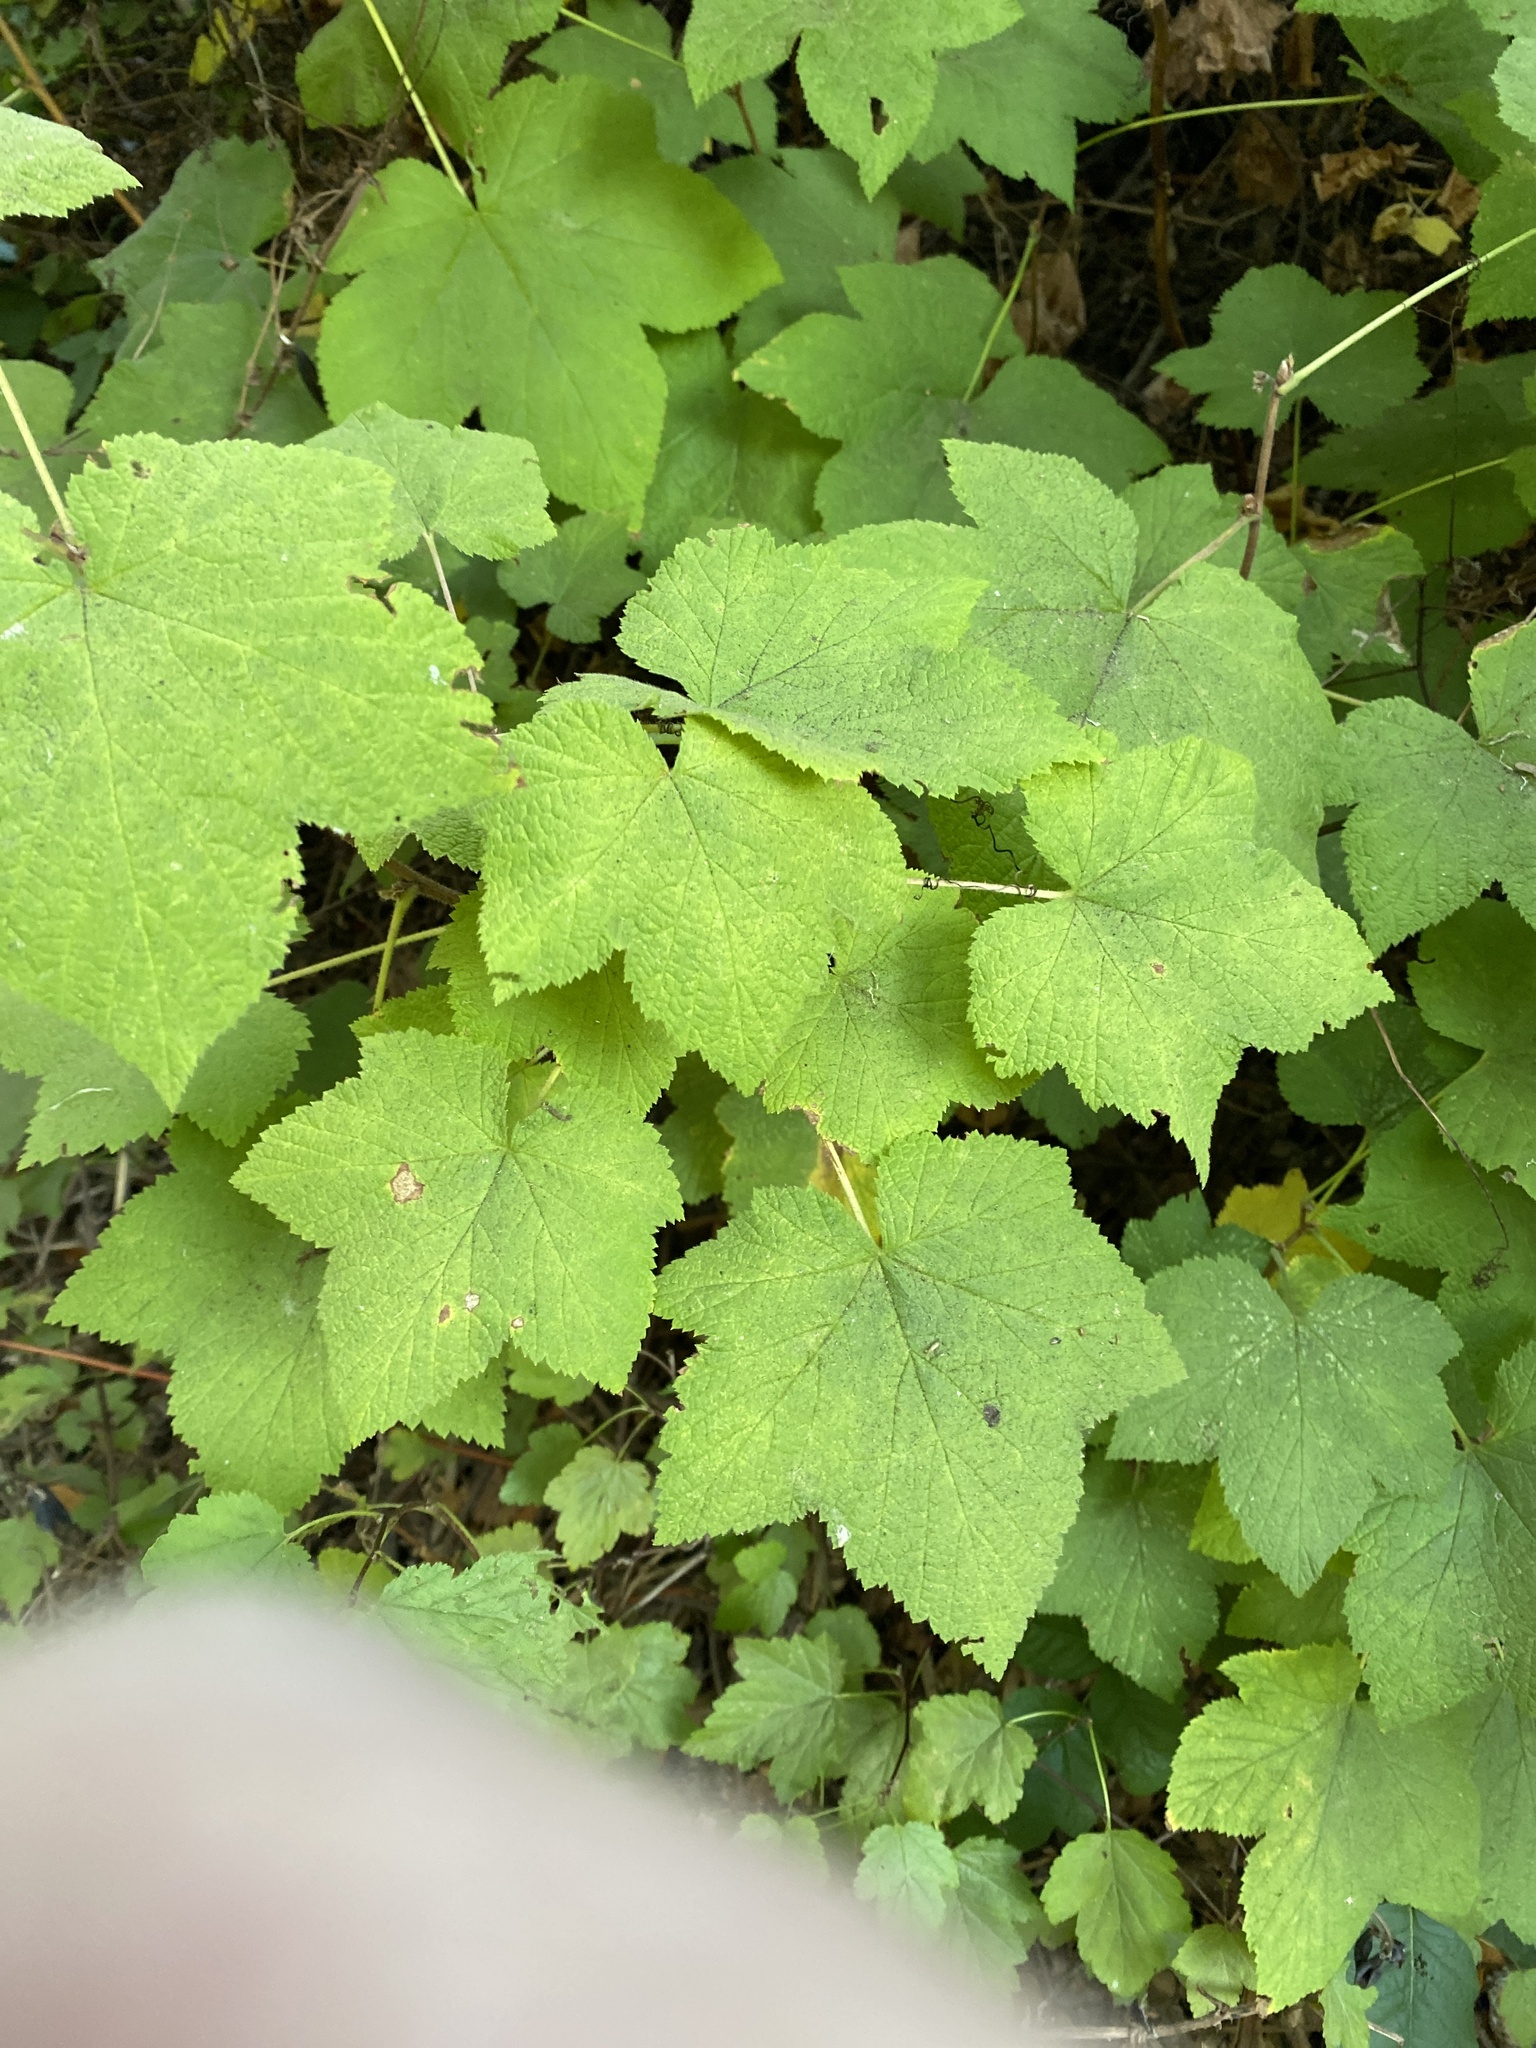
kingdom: Plantae
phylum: Tracheophyta
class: Magnoliopsida
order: Rosales
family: Rosaceae
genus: Rubus
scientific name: Rubus parviflorus
